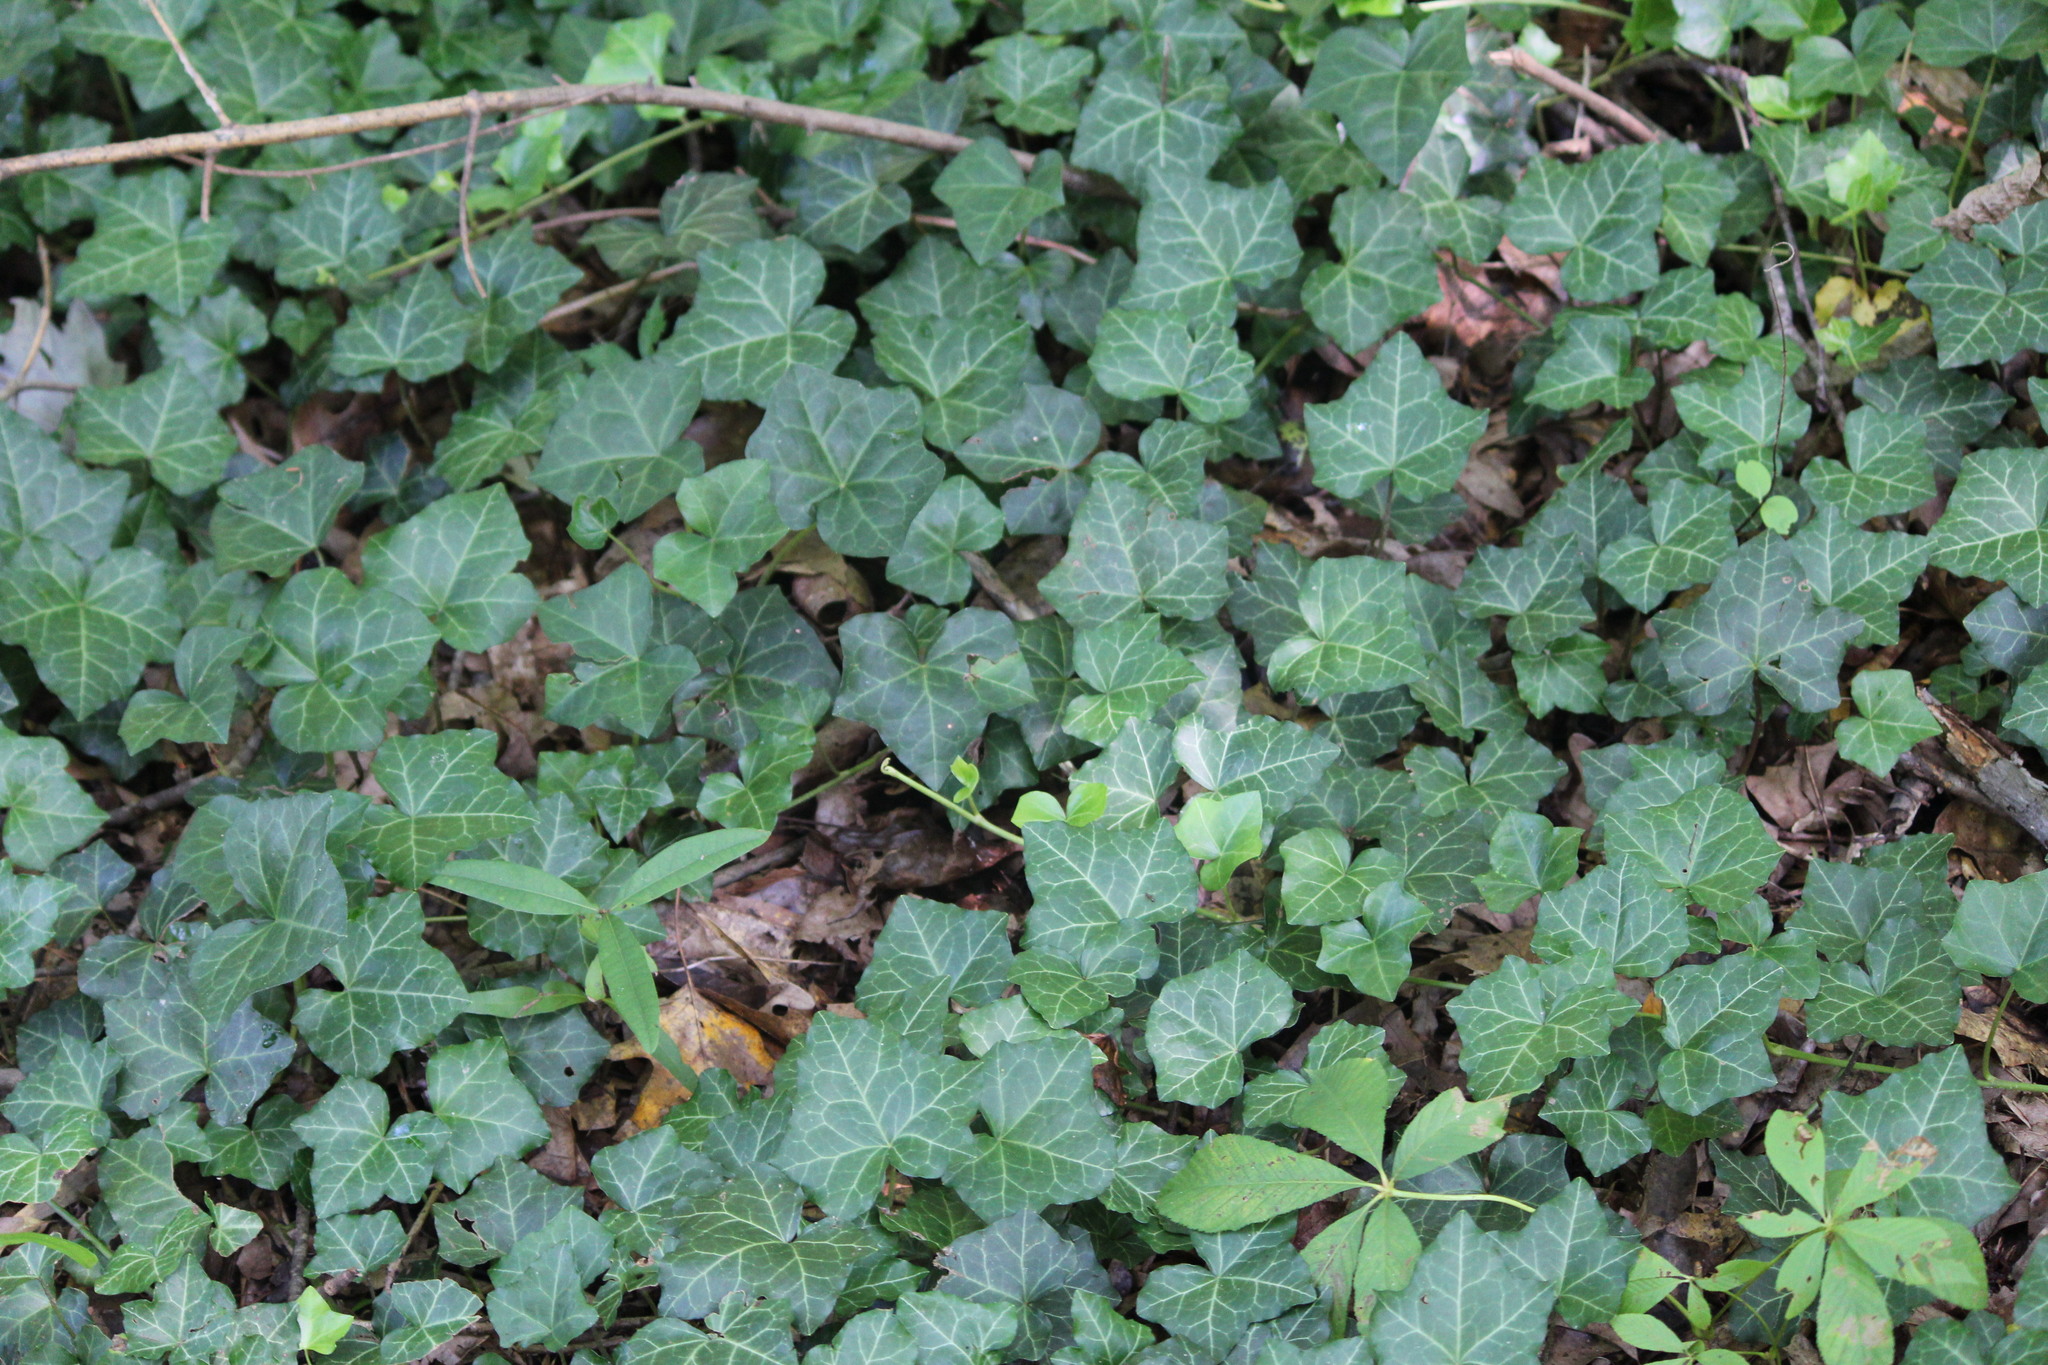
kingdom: Plantae
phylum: Tracheophyta
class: Magnoliopsida
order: Apiales
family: Araliaceae
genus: Hedera
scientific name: Hedera helix
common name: Ivy
